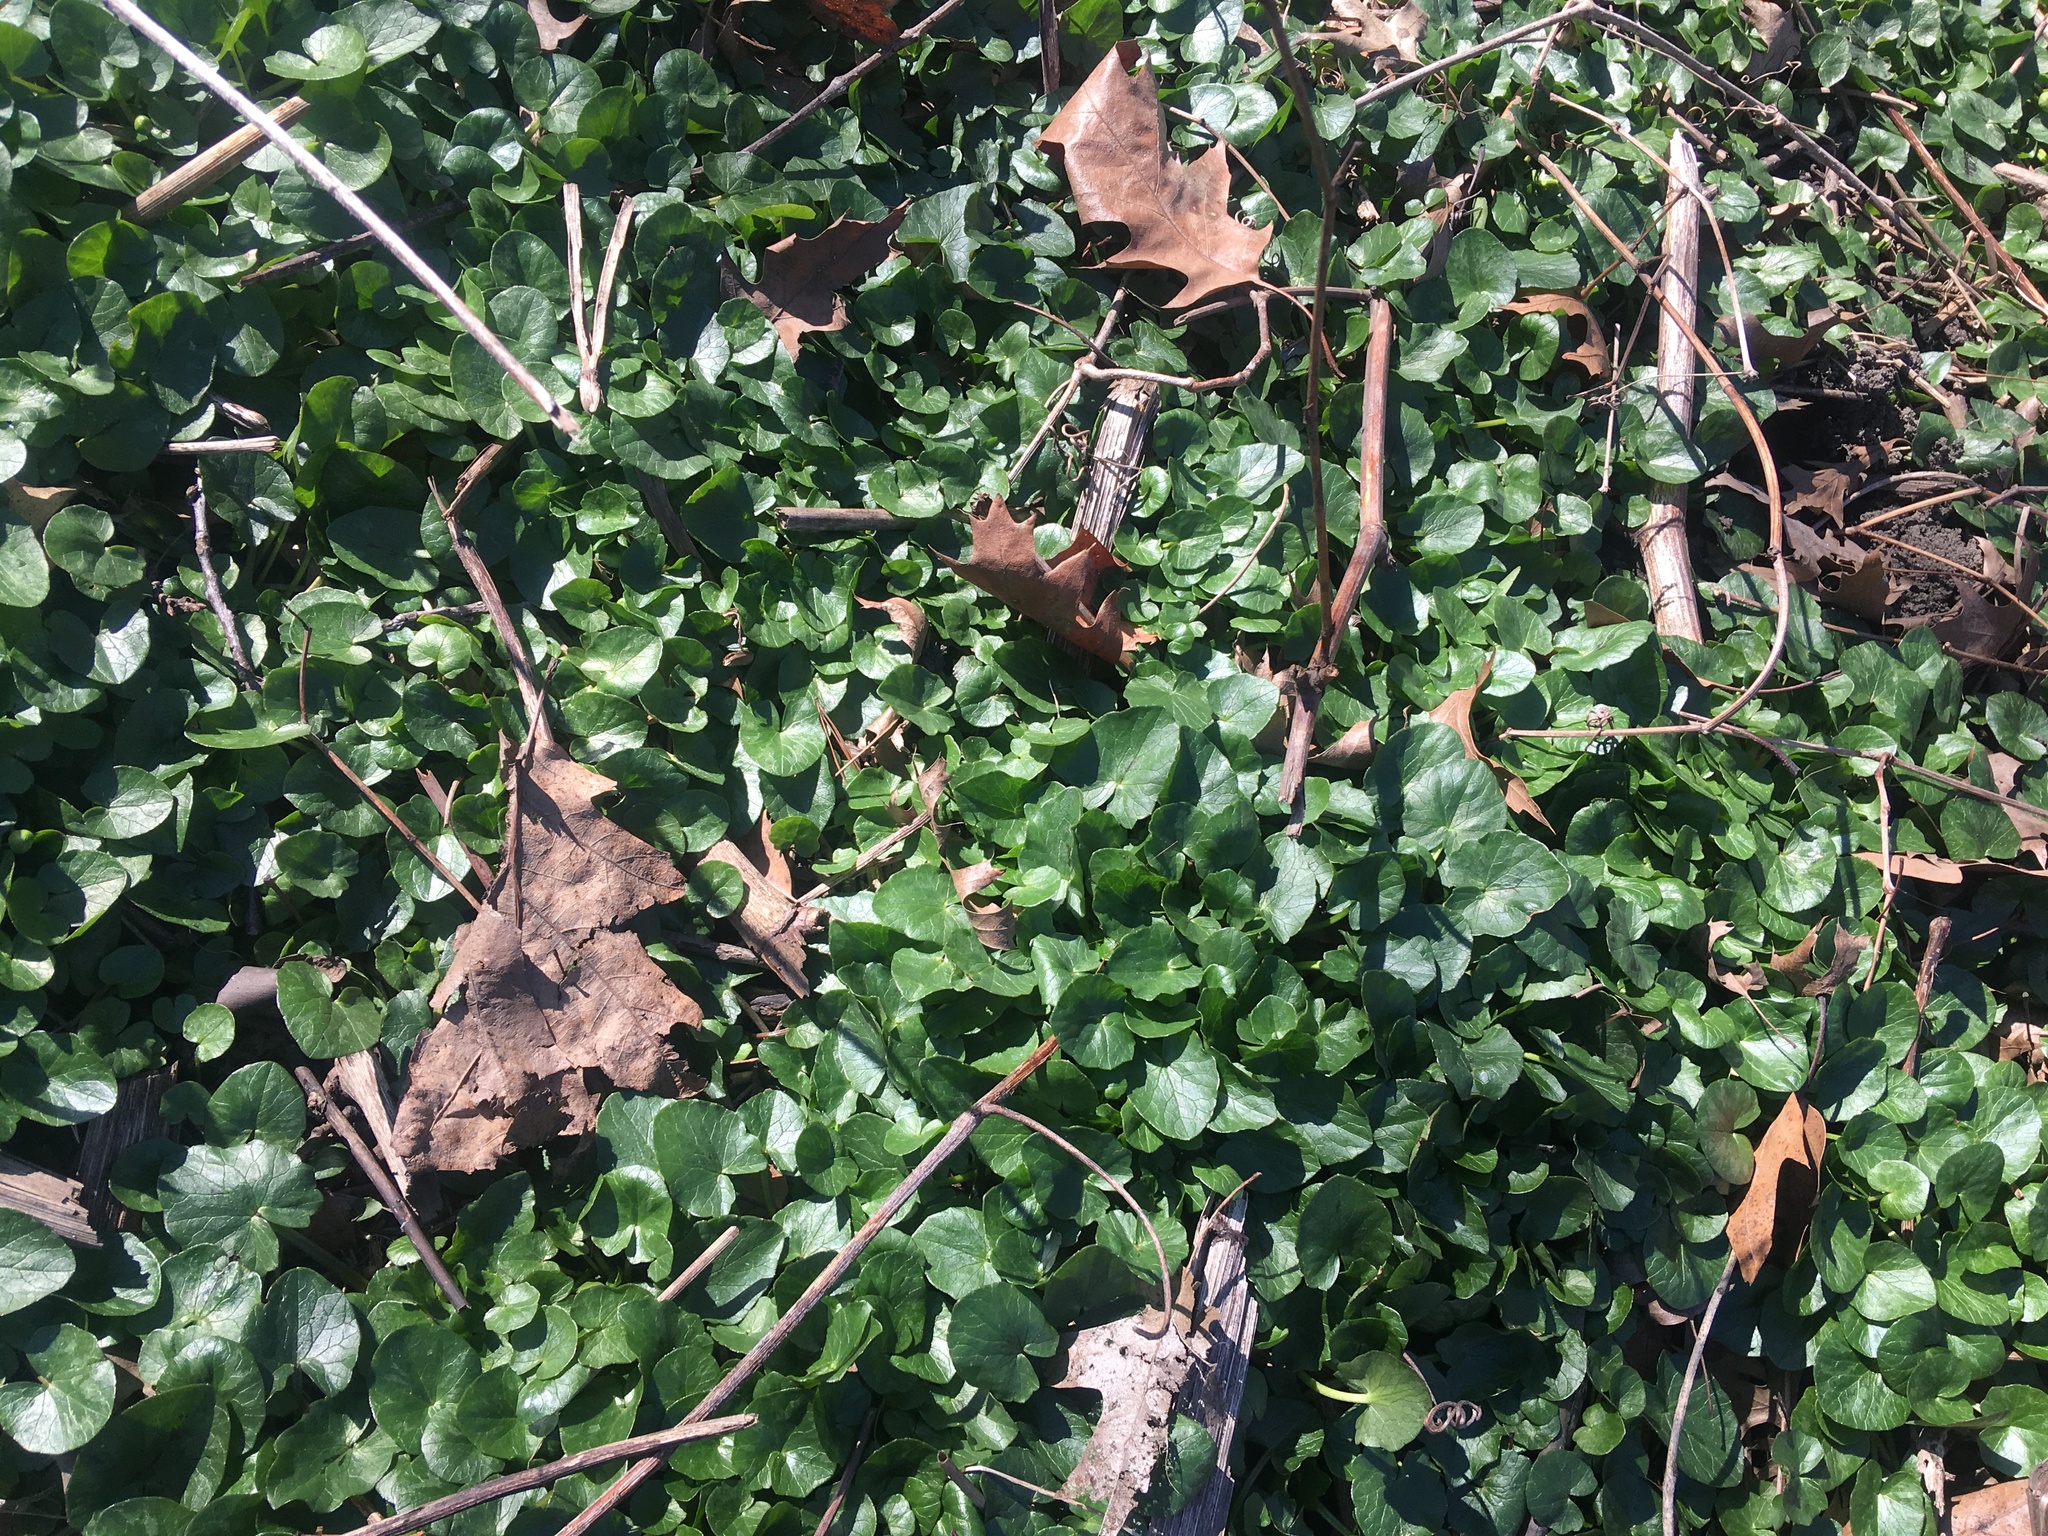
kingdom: Plantae
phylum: Tracheophyta
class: Magnoliopsida
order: Ranunculales
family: Ranunculaceae
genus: Ficaria
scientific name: Ficaria verna
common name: Lesser celandine
